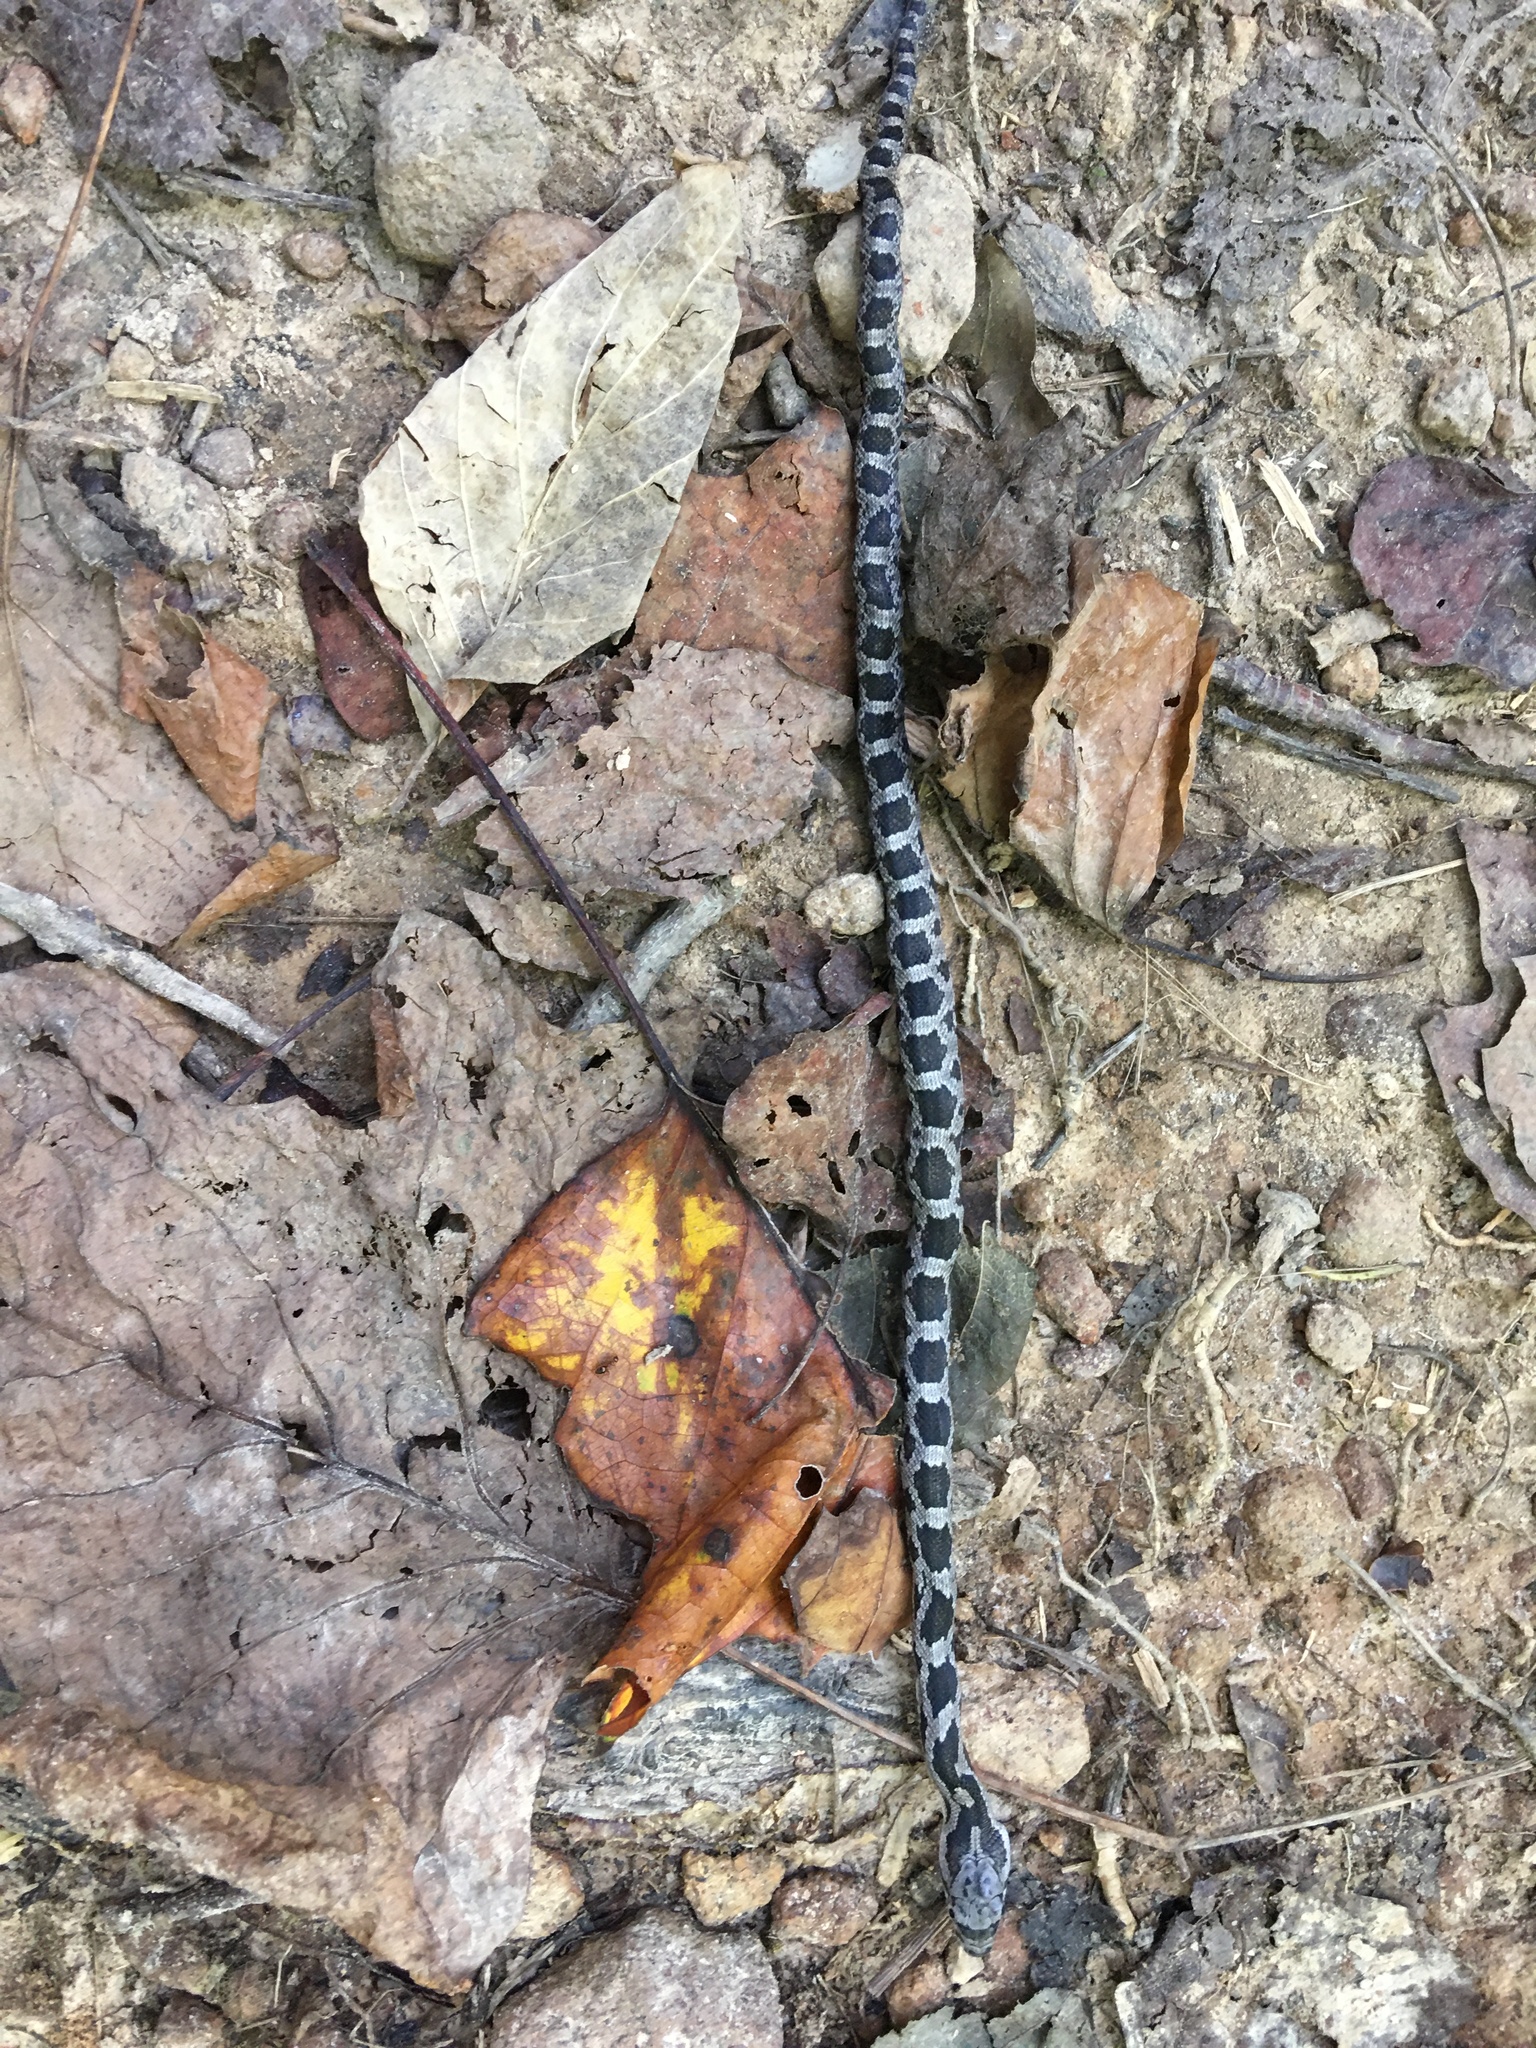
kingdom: Animalia
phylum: Chordata
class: Squamata
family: Colubridae
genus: Pantherophis
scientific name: Pantherophis alleghaniensis
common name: Eastern rat snake
